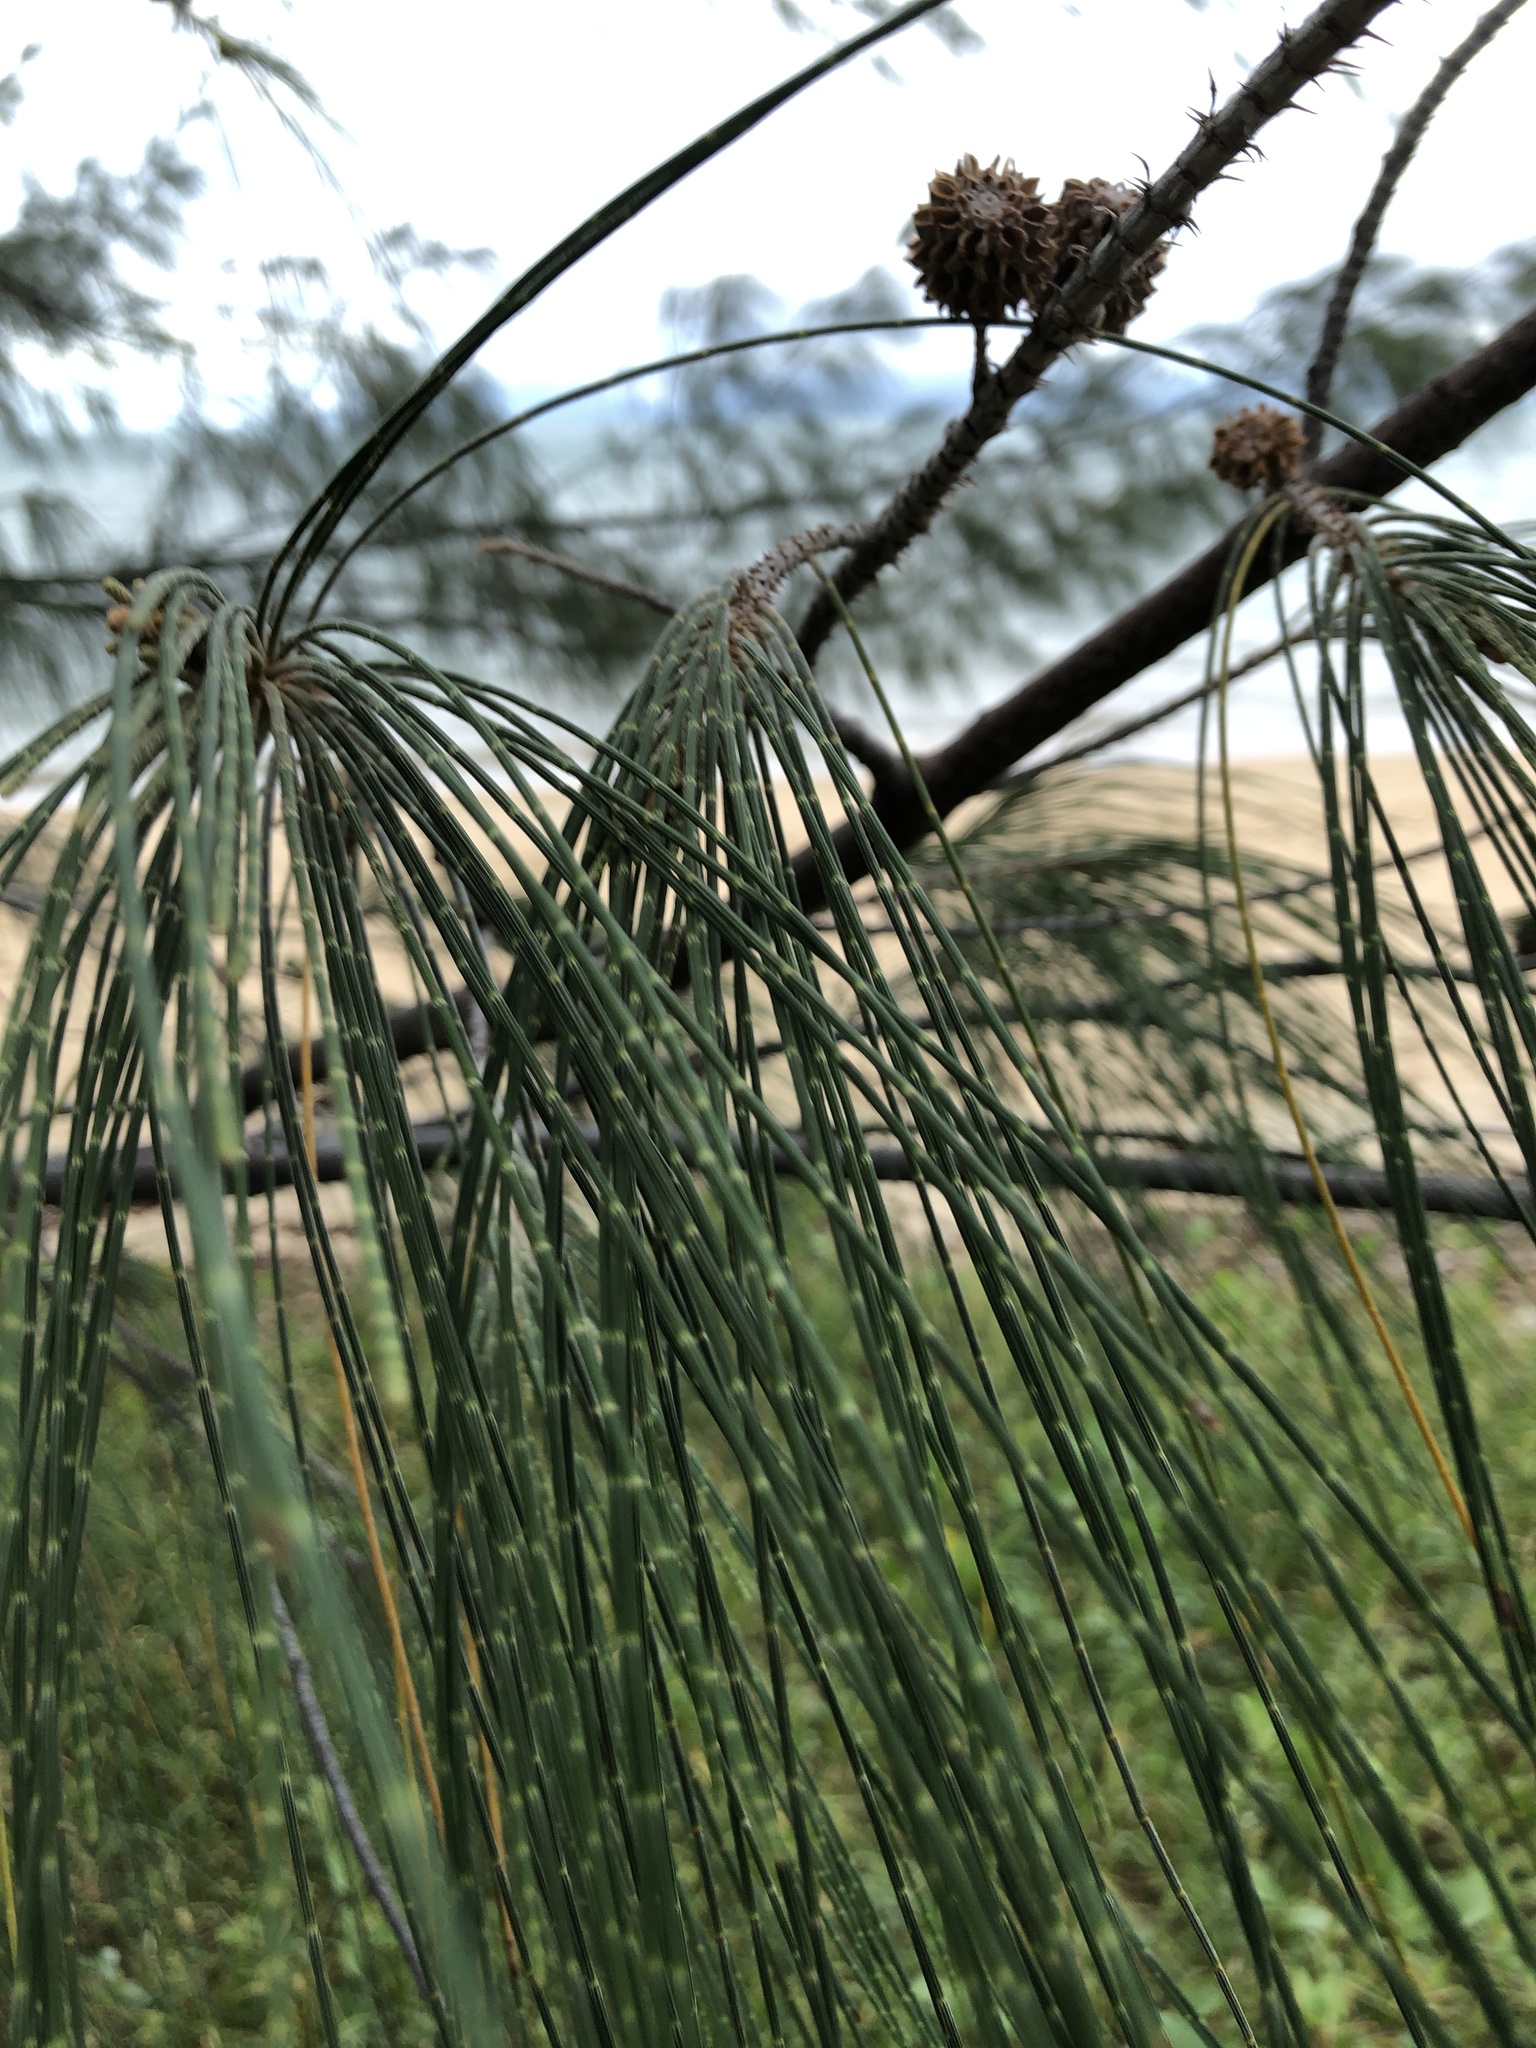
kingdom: Plantae
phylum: Tracheophyta
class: Magnoliopsida
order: Fagales
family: Casuarinaceae
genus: Casuarina
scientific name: Casuarina equisetifolia
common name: Beach sheoak
